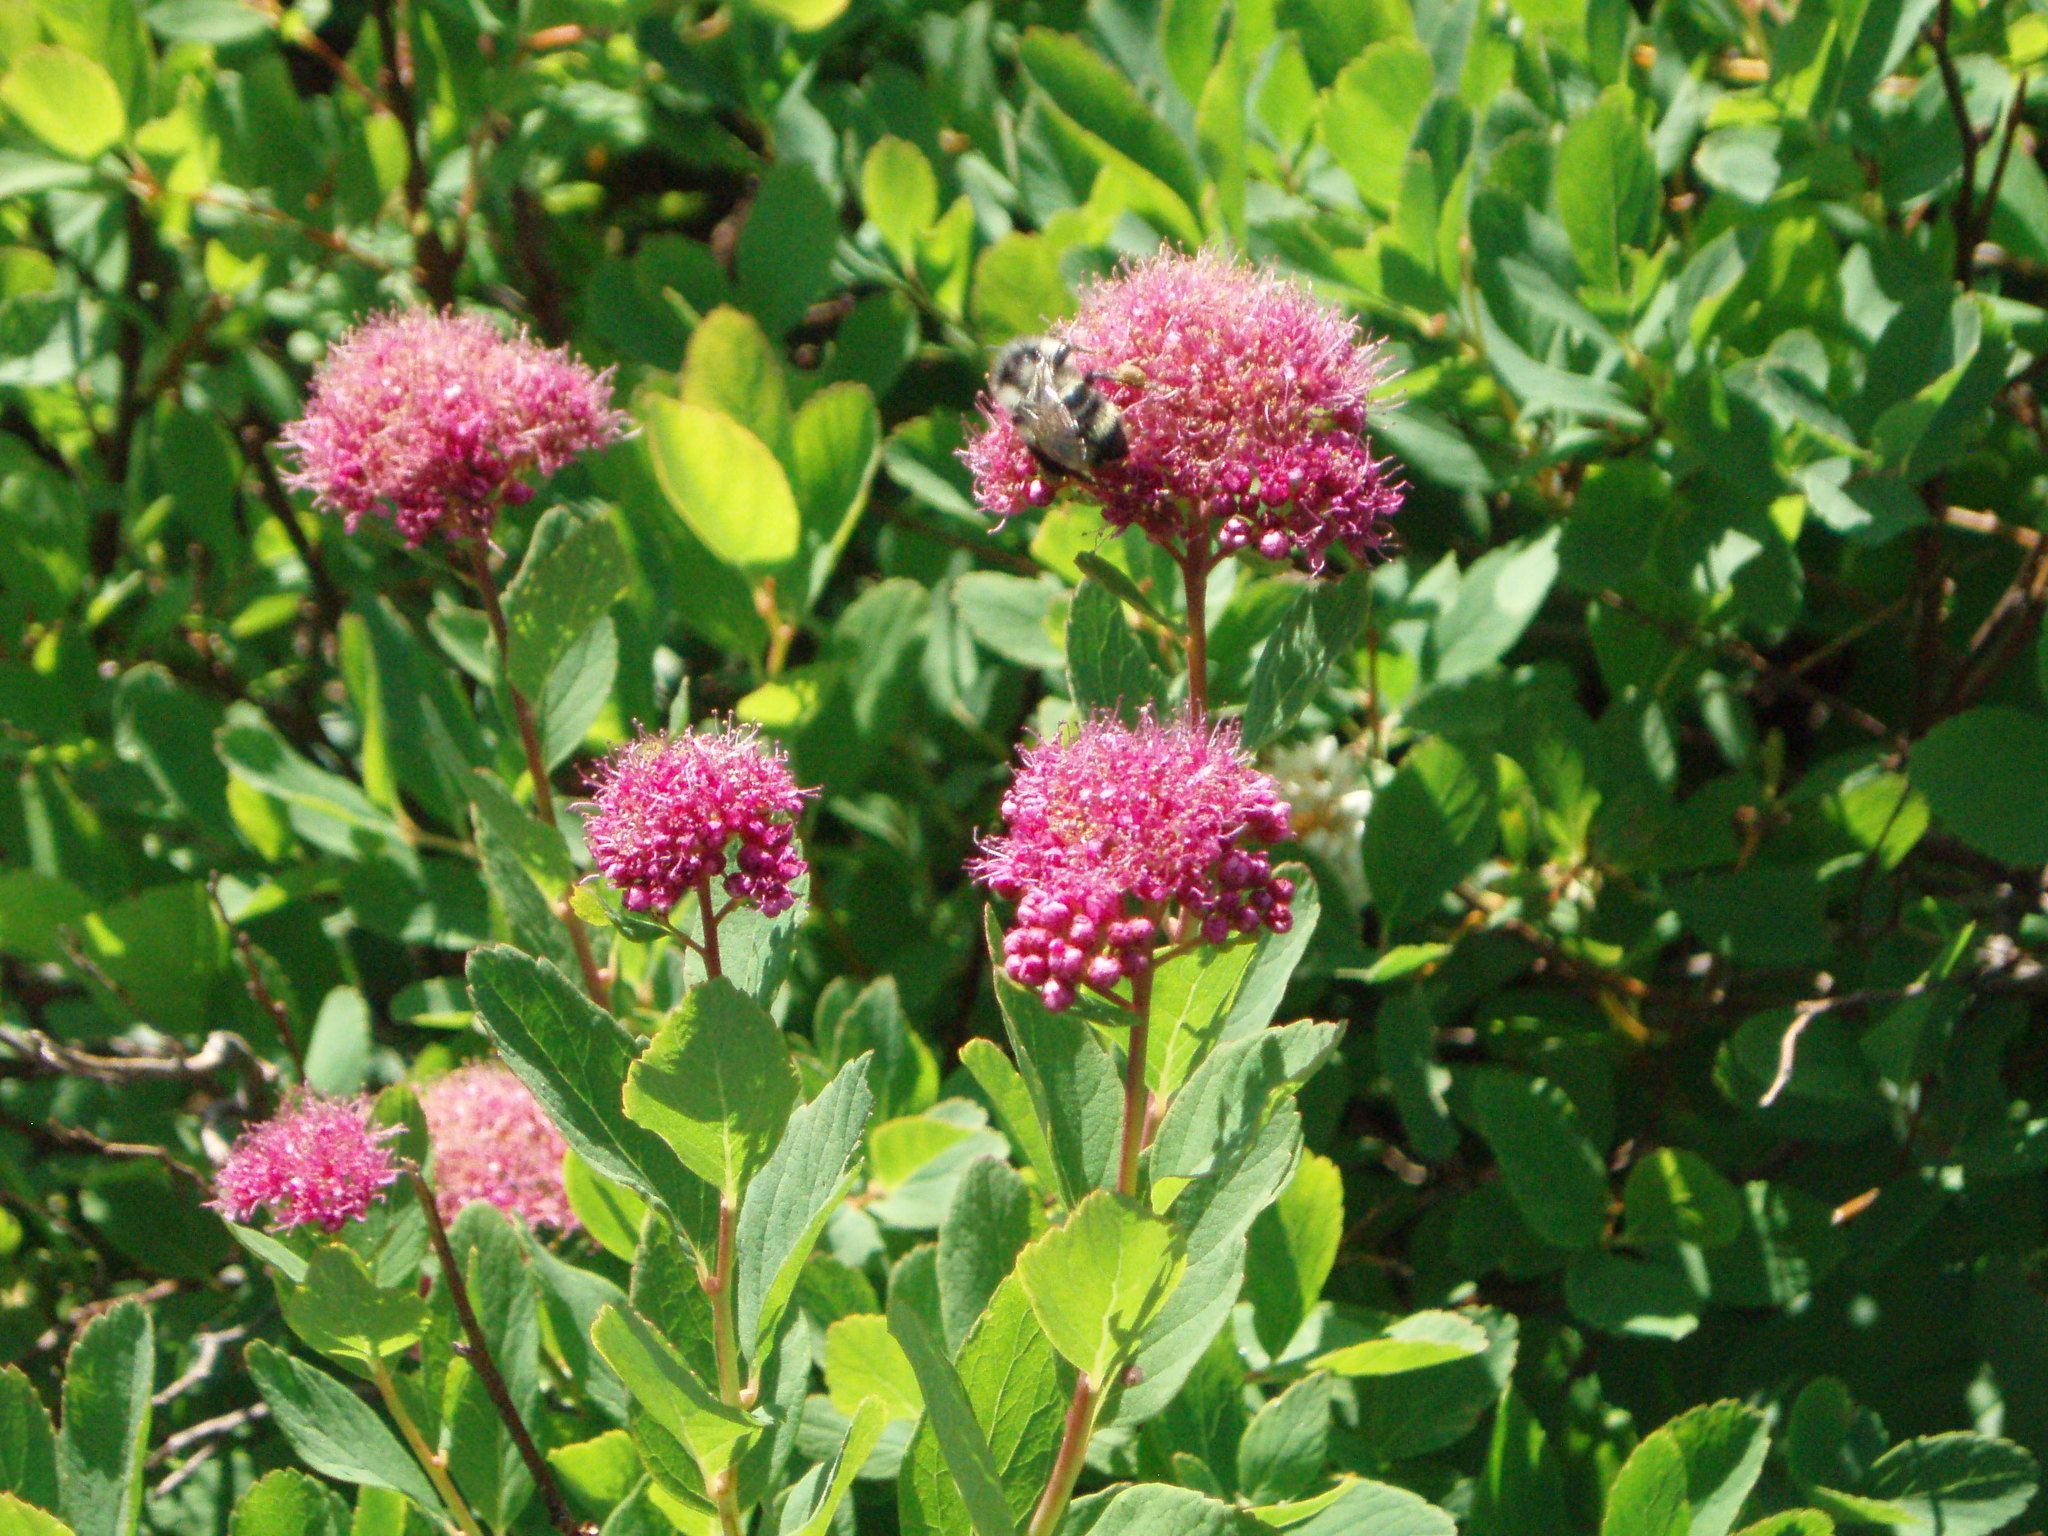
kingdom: Plantae
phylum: Tracheophyta
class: Magnoliopsida
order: Rosales
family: Rosaceae
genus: Spiraea
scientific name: Spiraea splendens
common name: Subalpine meadowsweet
